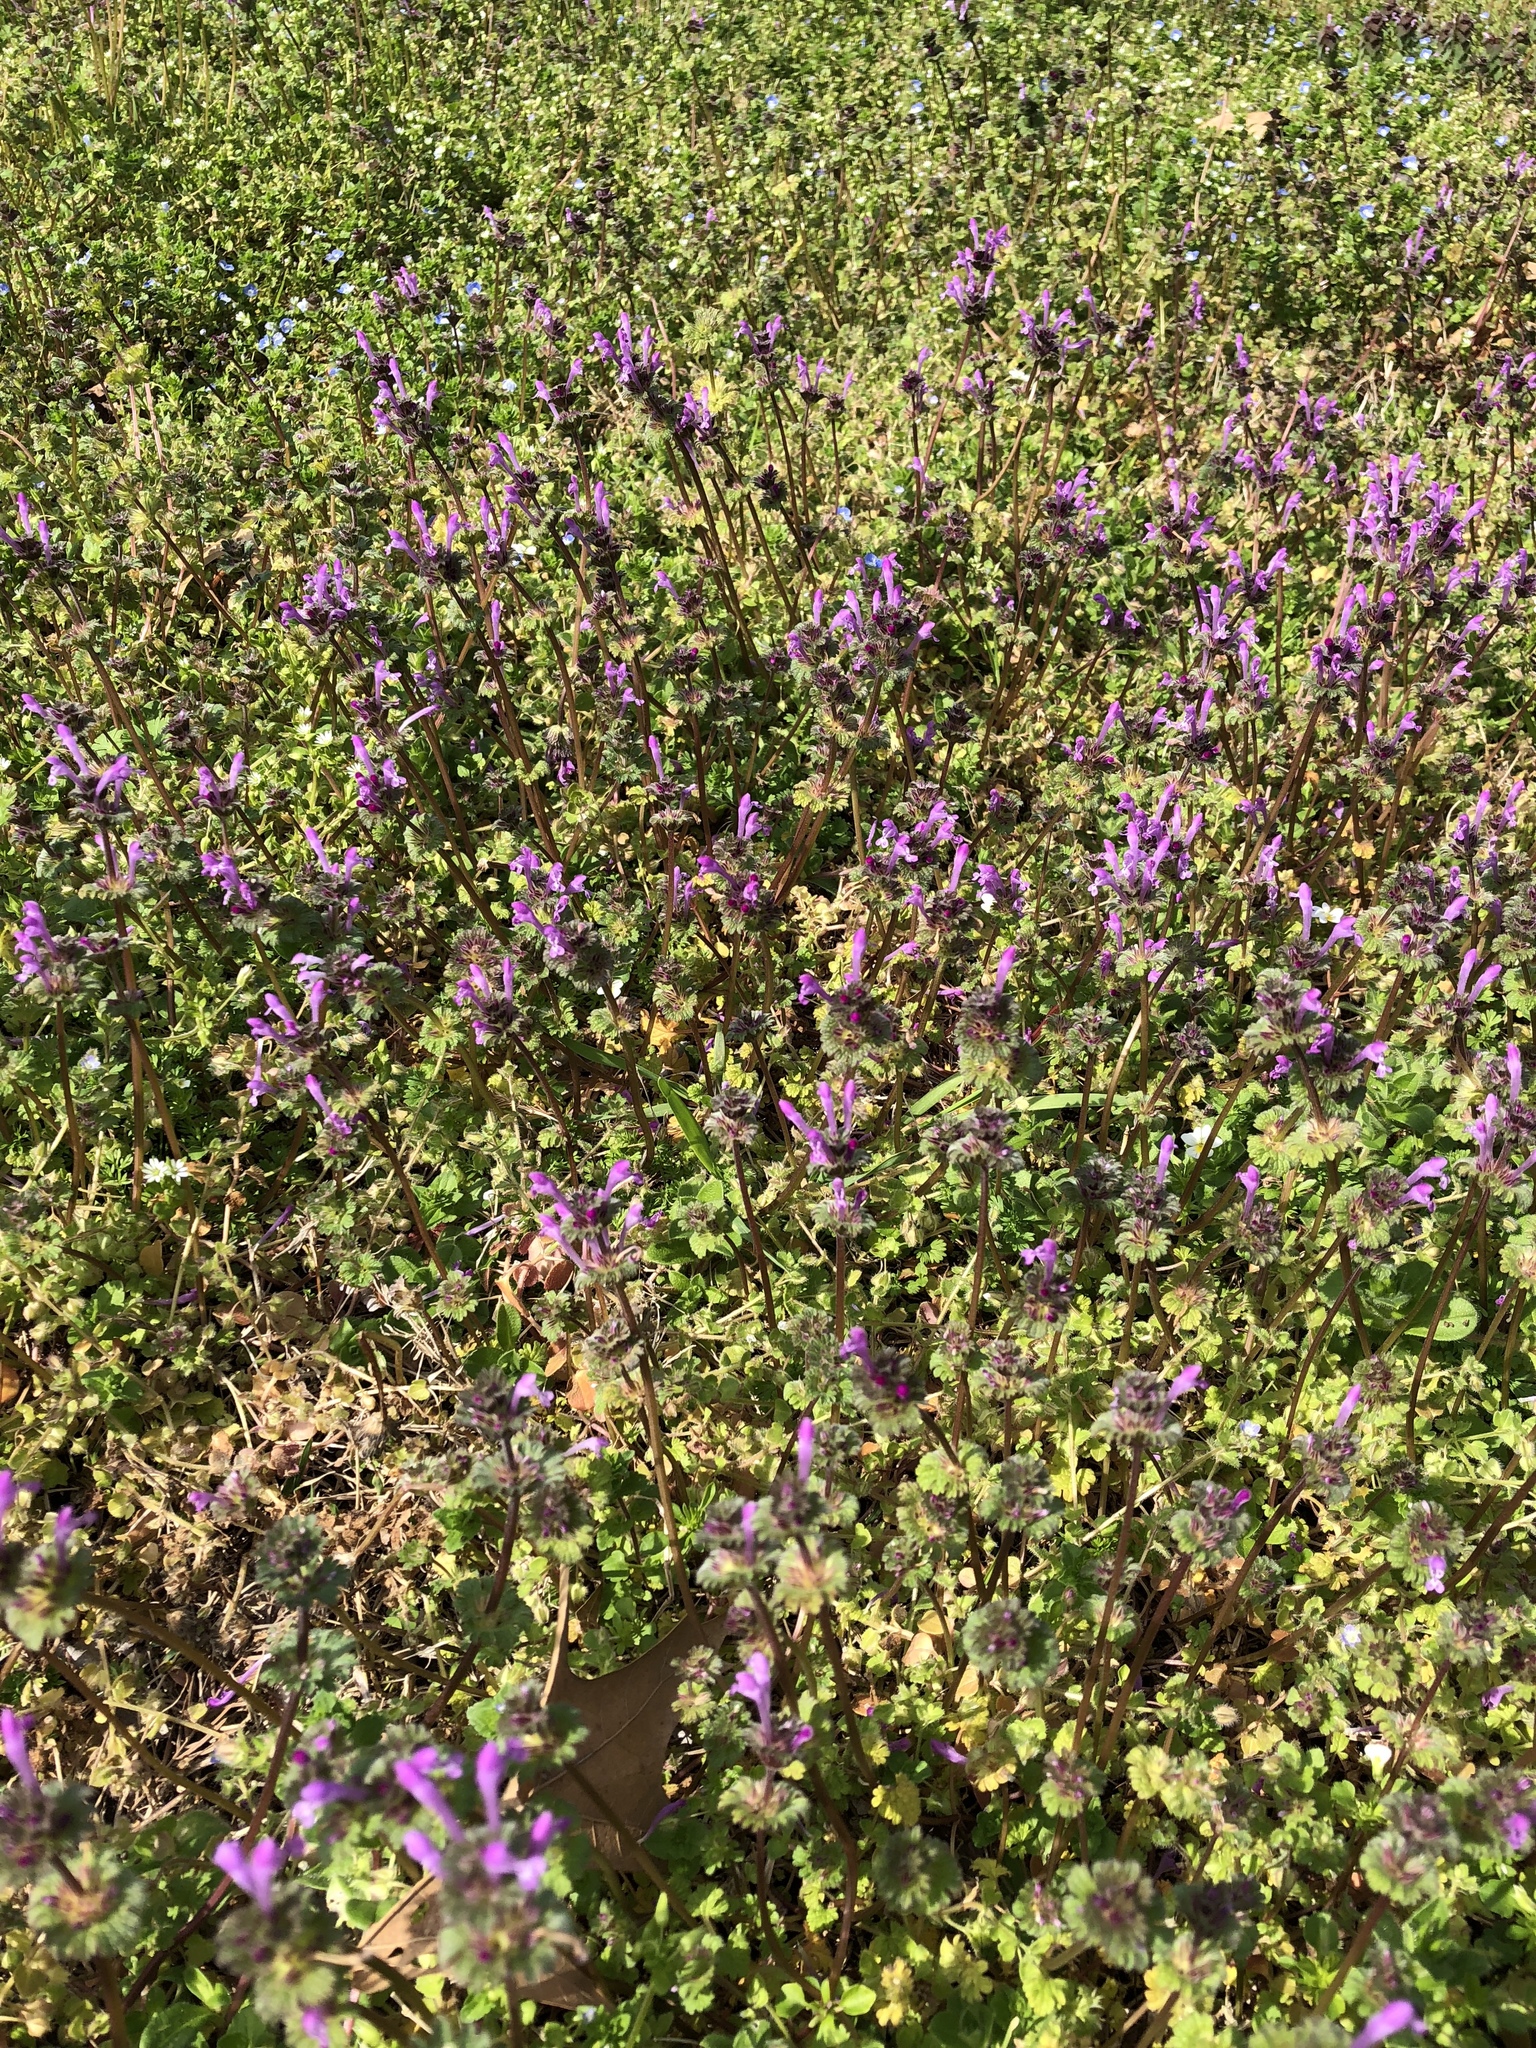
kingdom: Plantae
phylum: Tracheophyta
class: Magnoliopsida
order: Lamiales
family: Lamiaceae
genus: Lamium
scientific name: Lamium amplexicaule
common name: Henbit dead-nettle
